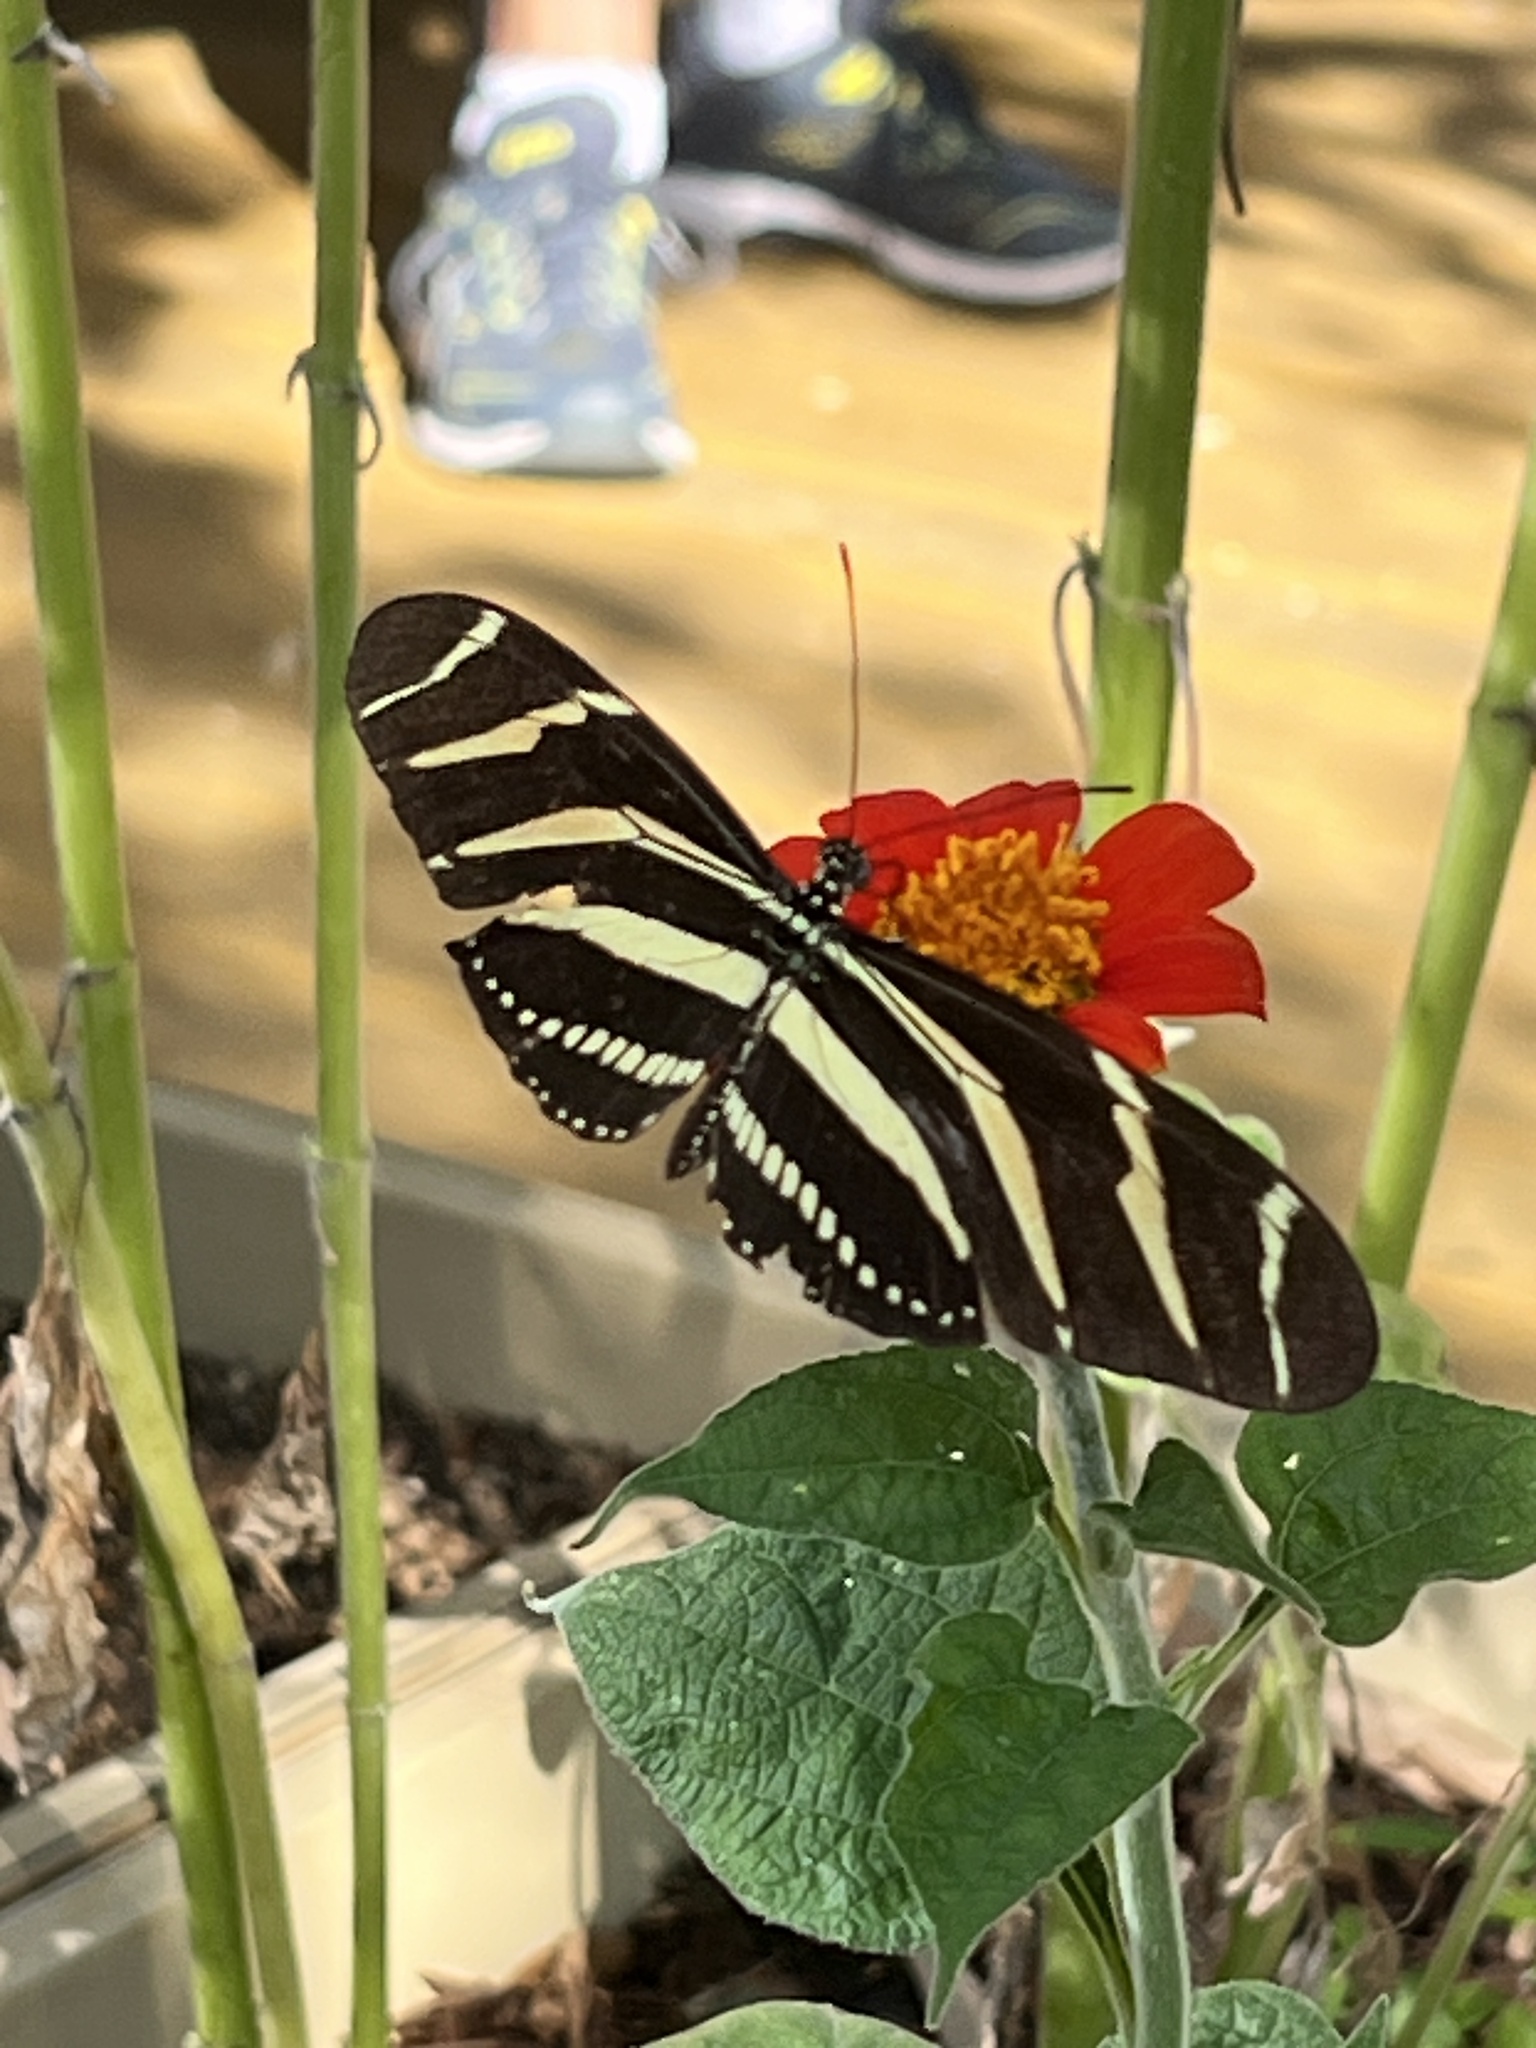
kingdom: Animalia
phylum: Arthropoda
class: Insecta
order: Lepidoptera
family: Nymphalidae
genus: Heliconius
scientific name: Heliconius charithonia
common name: Zebra long wing
